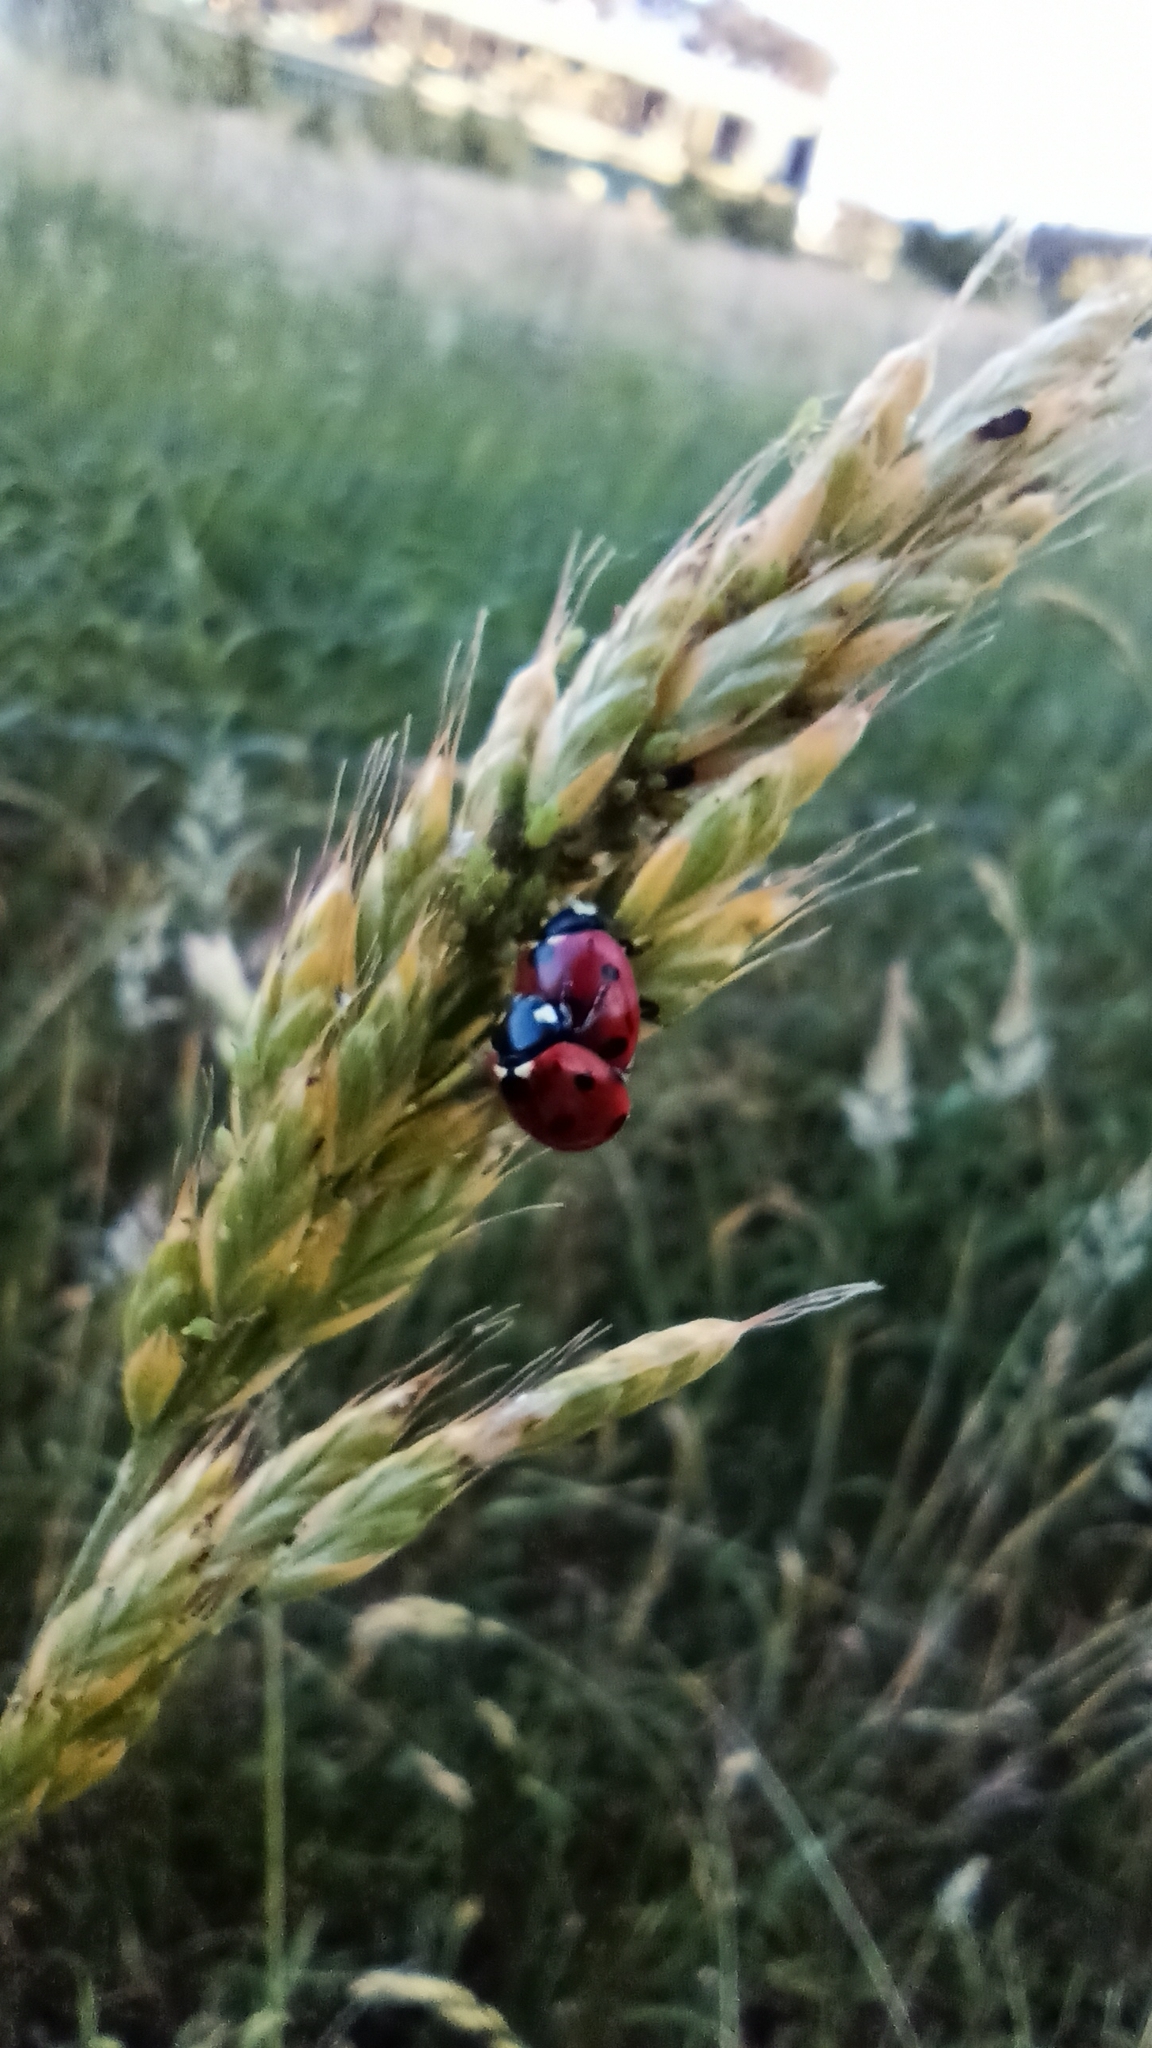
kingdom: Animalia
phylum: Arthropoda
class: Insecta
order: Coleoptera
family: Coccinellidae
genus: Coccinella
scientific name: Coccinella septempunctata
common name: Sevenspotted lady beetle
